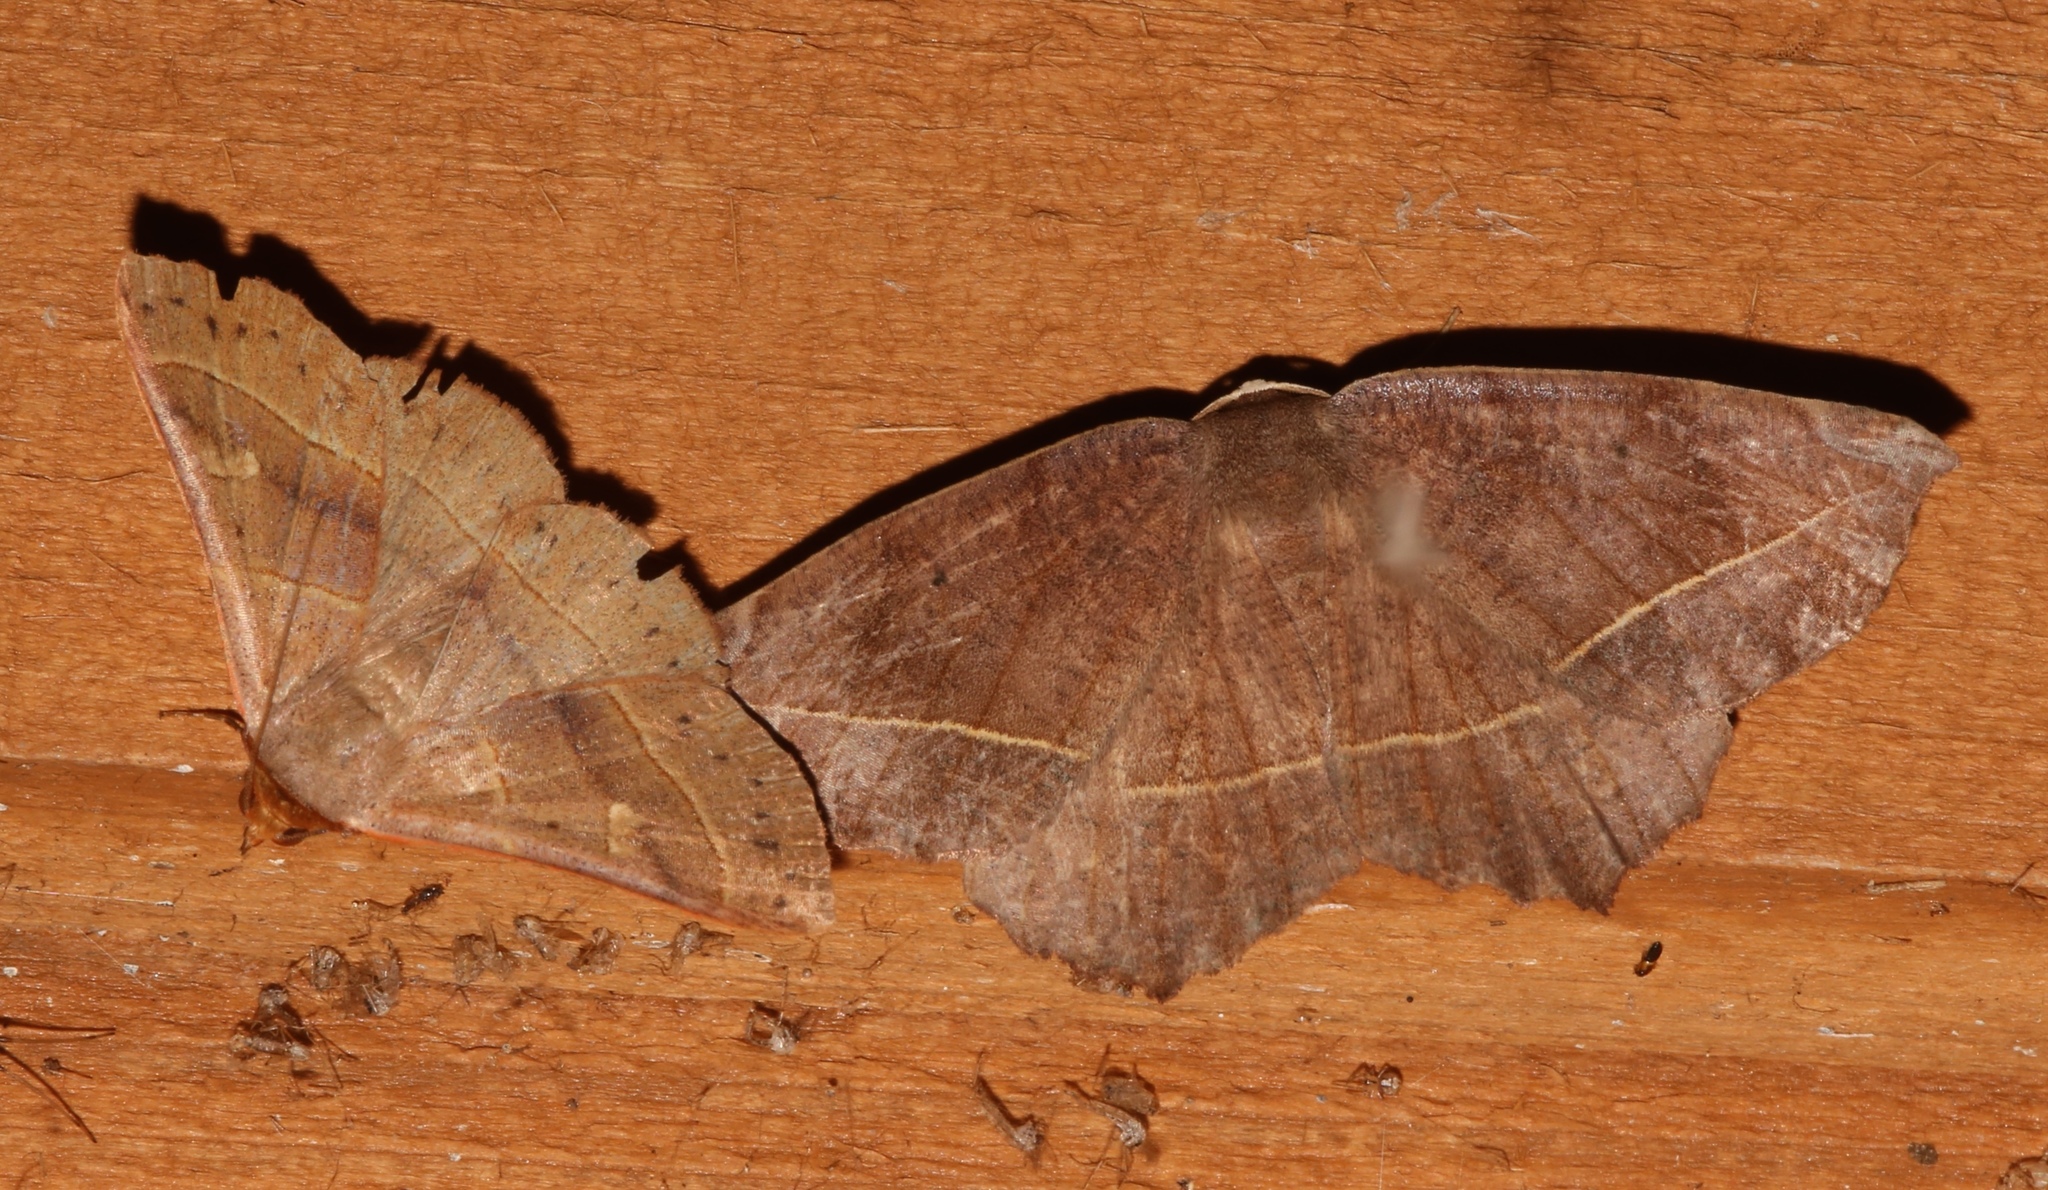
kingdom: Animalia
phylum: Arthropoda
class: Insecta
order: Lepidoptera
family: Geometridae
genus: Eutrapela
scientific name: Eutrapela clemataria
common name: Curved-toothed geometer
